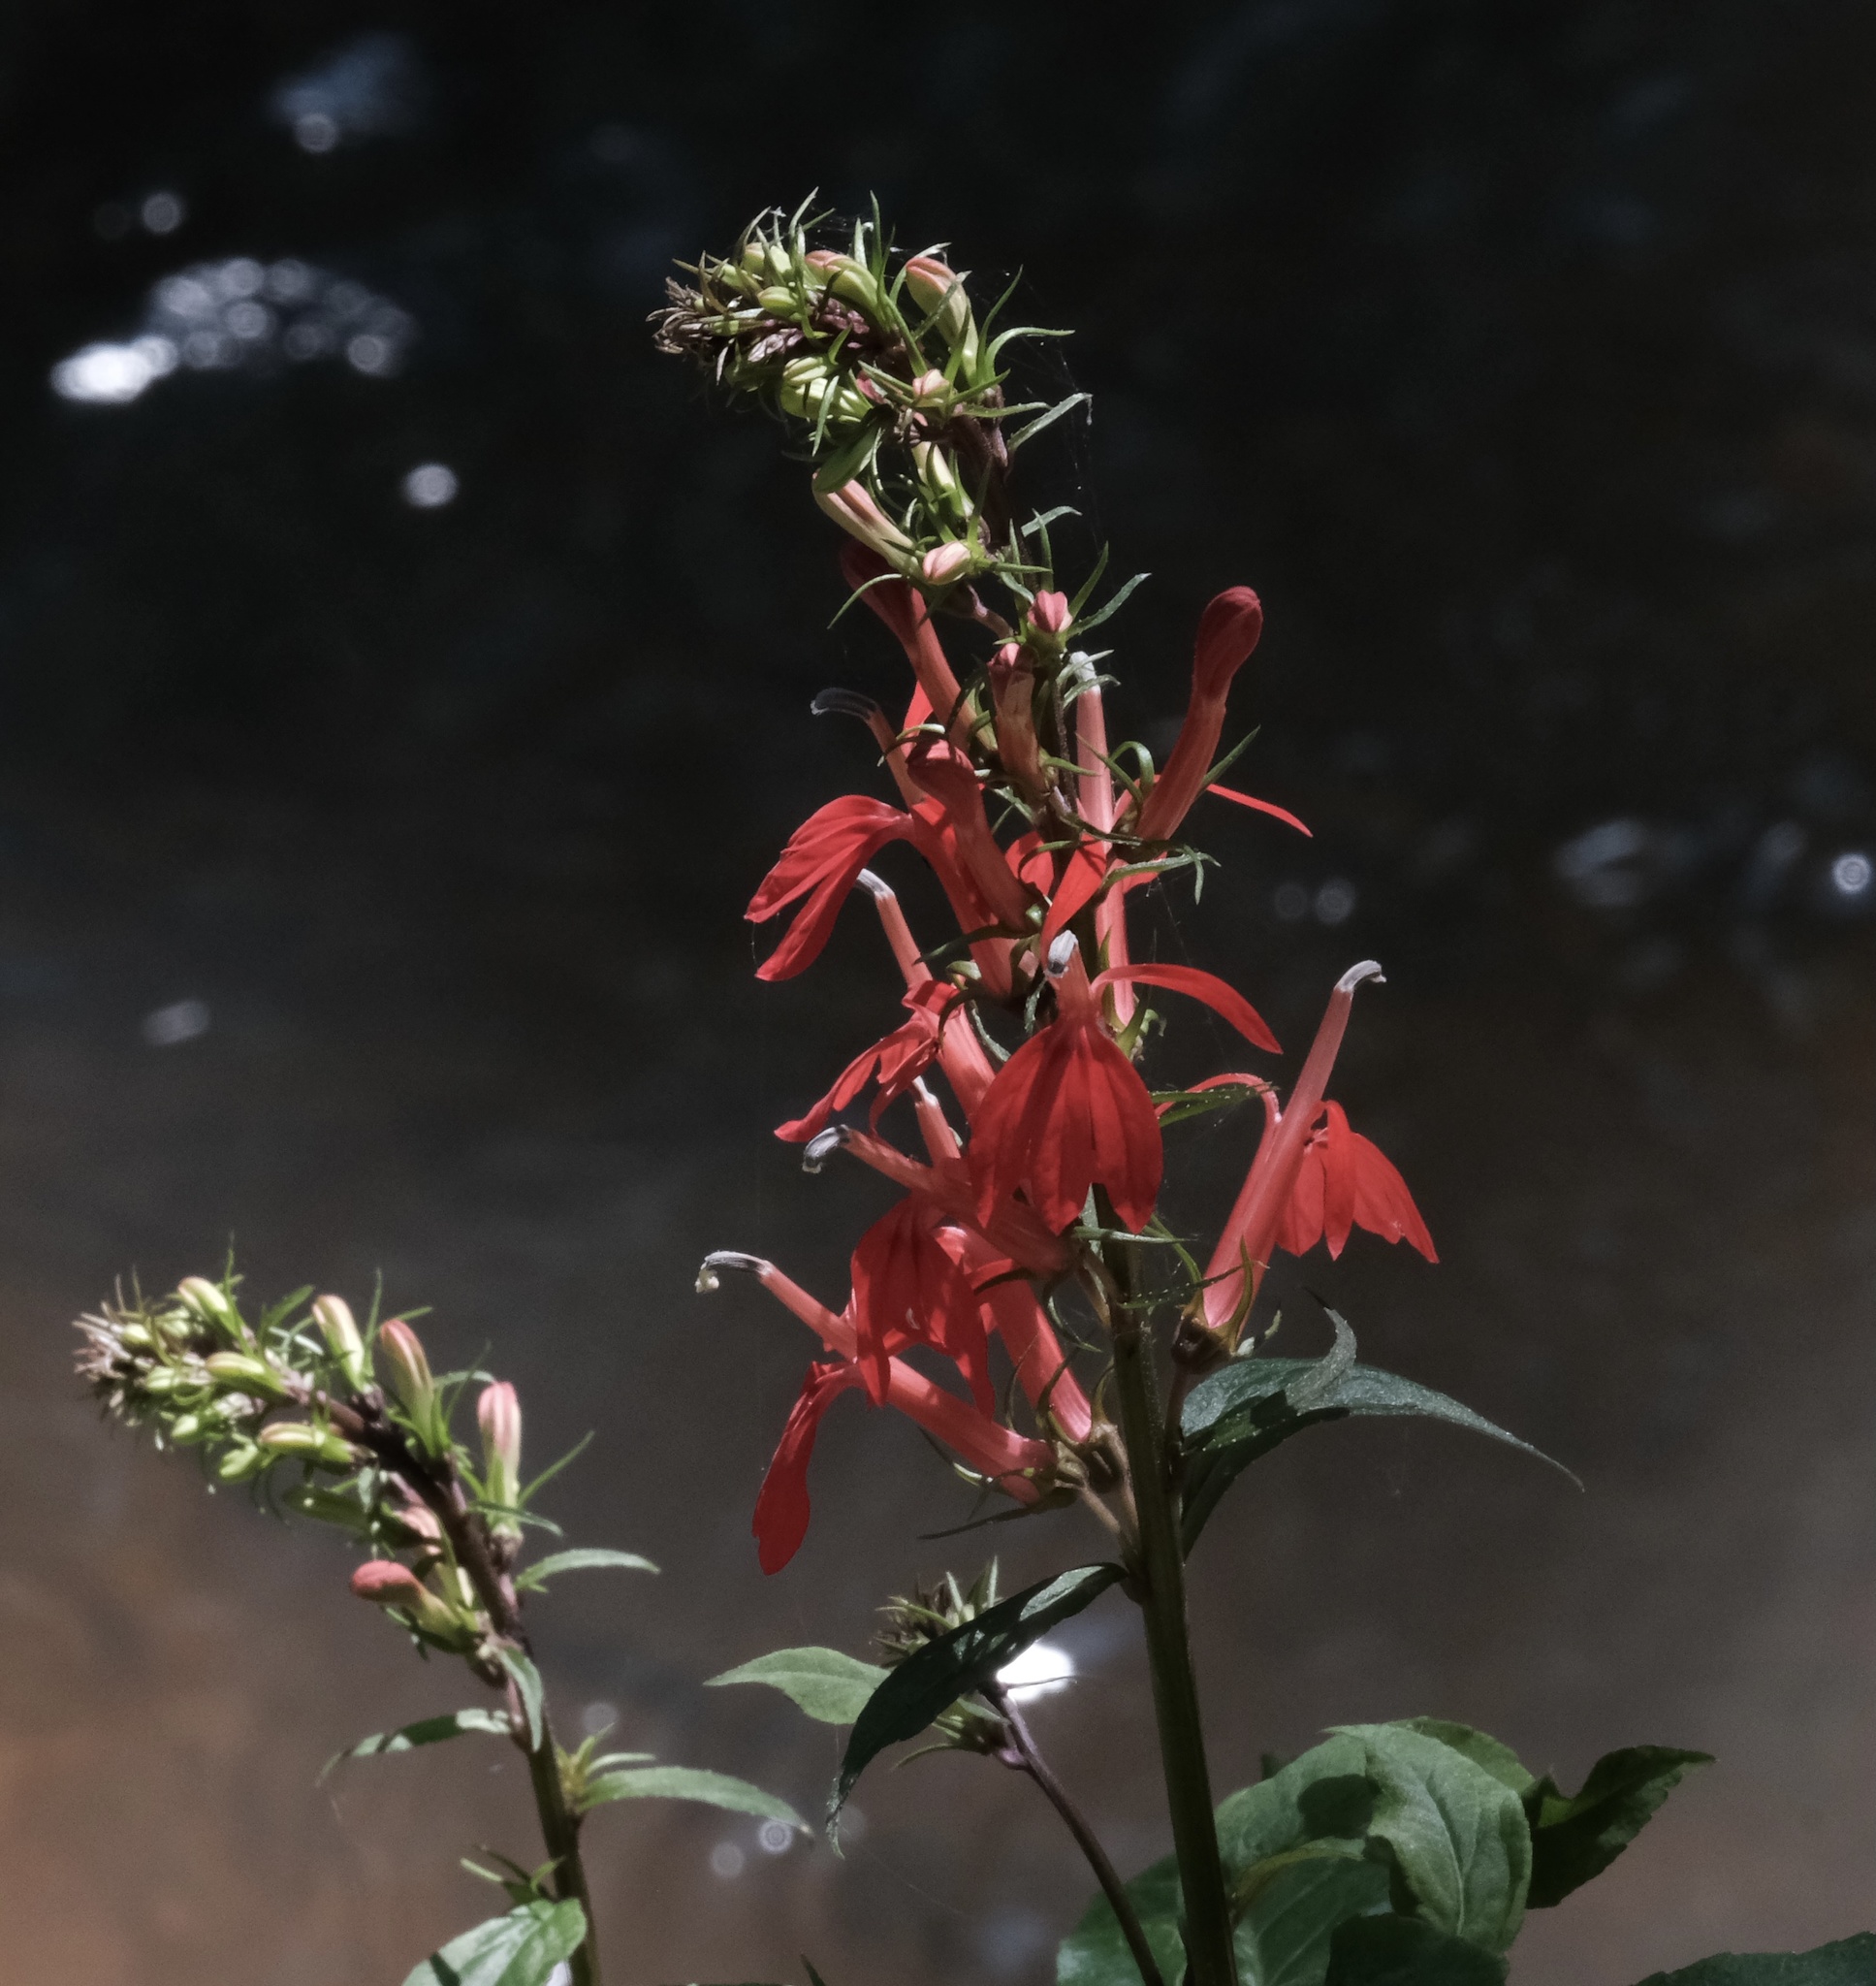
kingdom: Plantae
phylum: Tracheophyta
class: Magnoliopsida
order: Asterales
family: Campanulaceae
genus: Lobelia
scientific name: Lobelia cardinalis
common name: Cardinal flower
